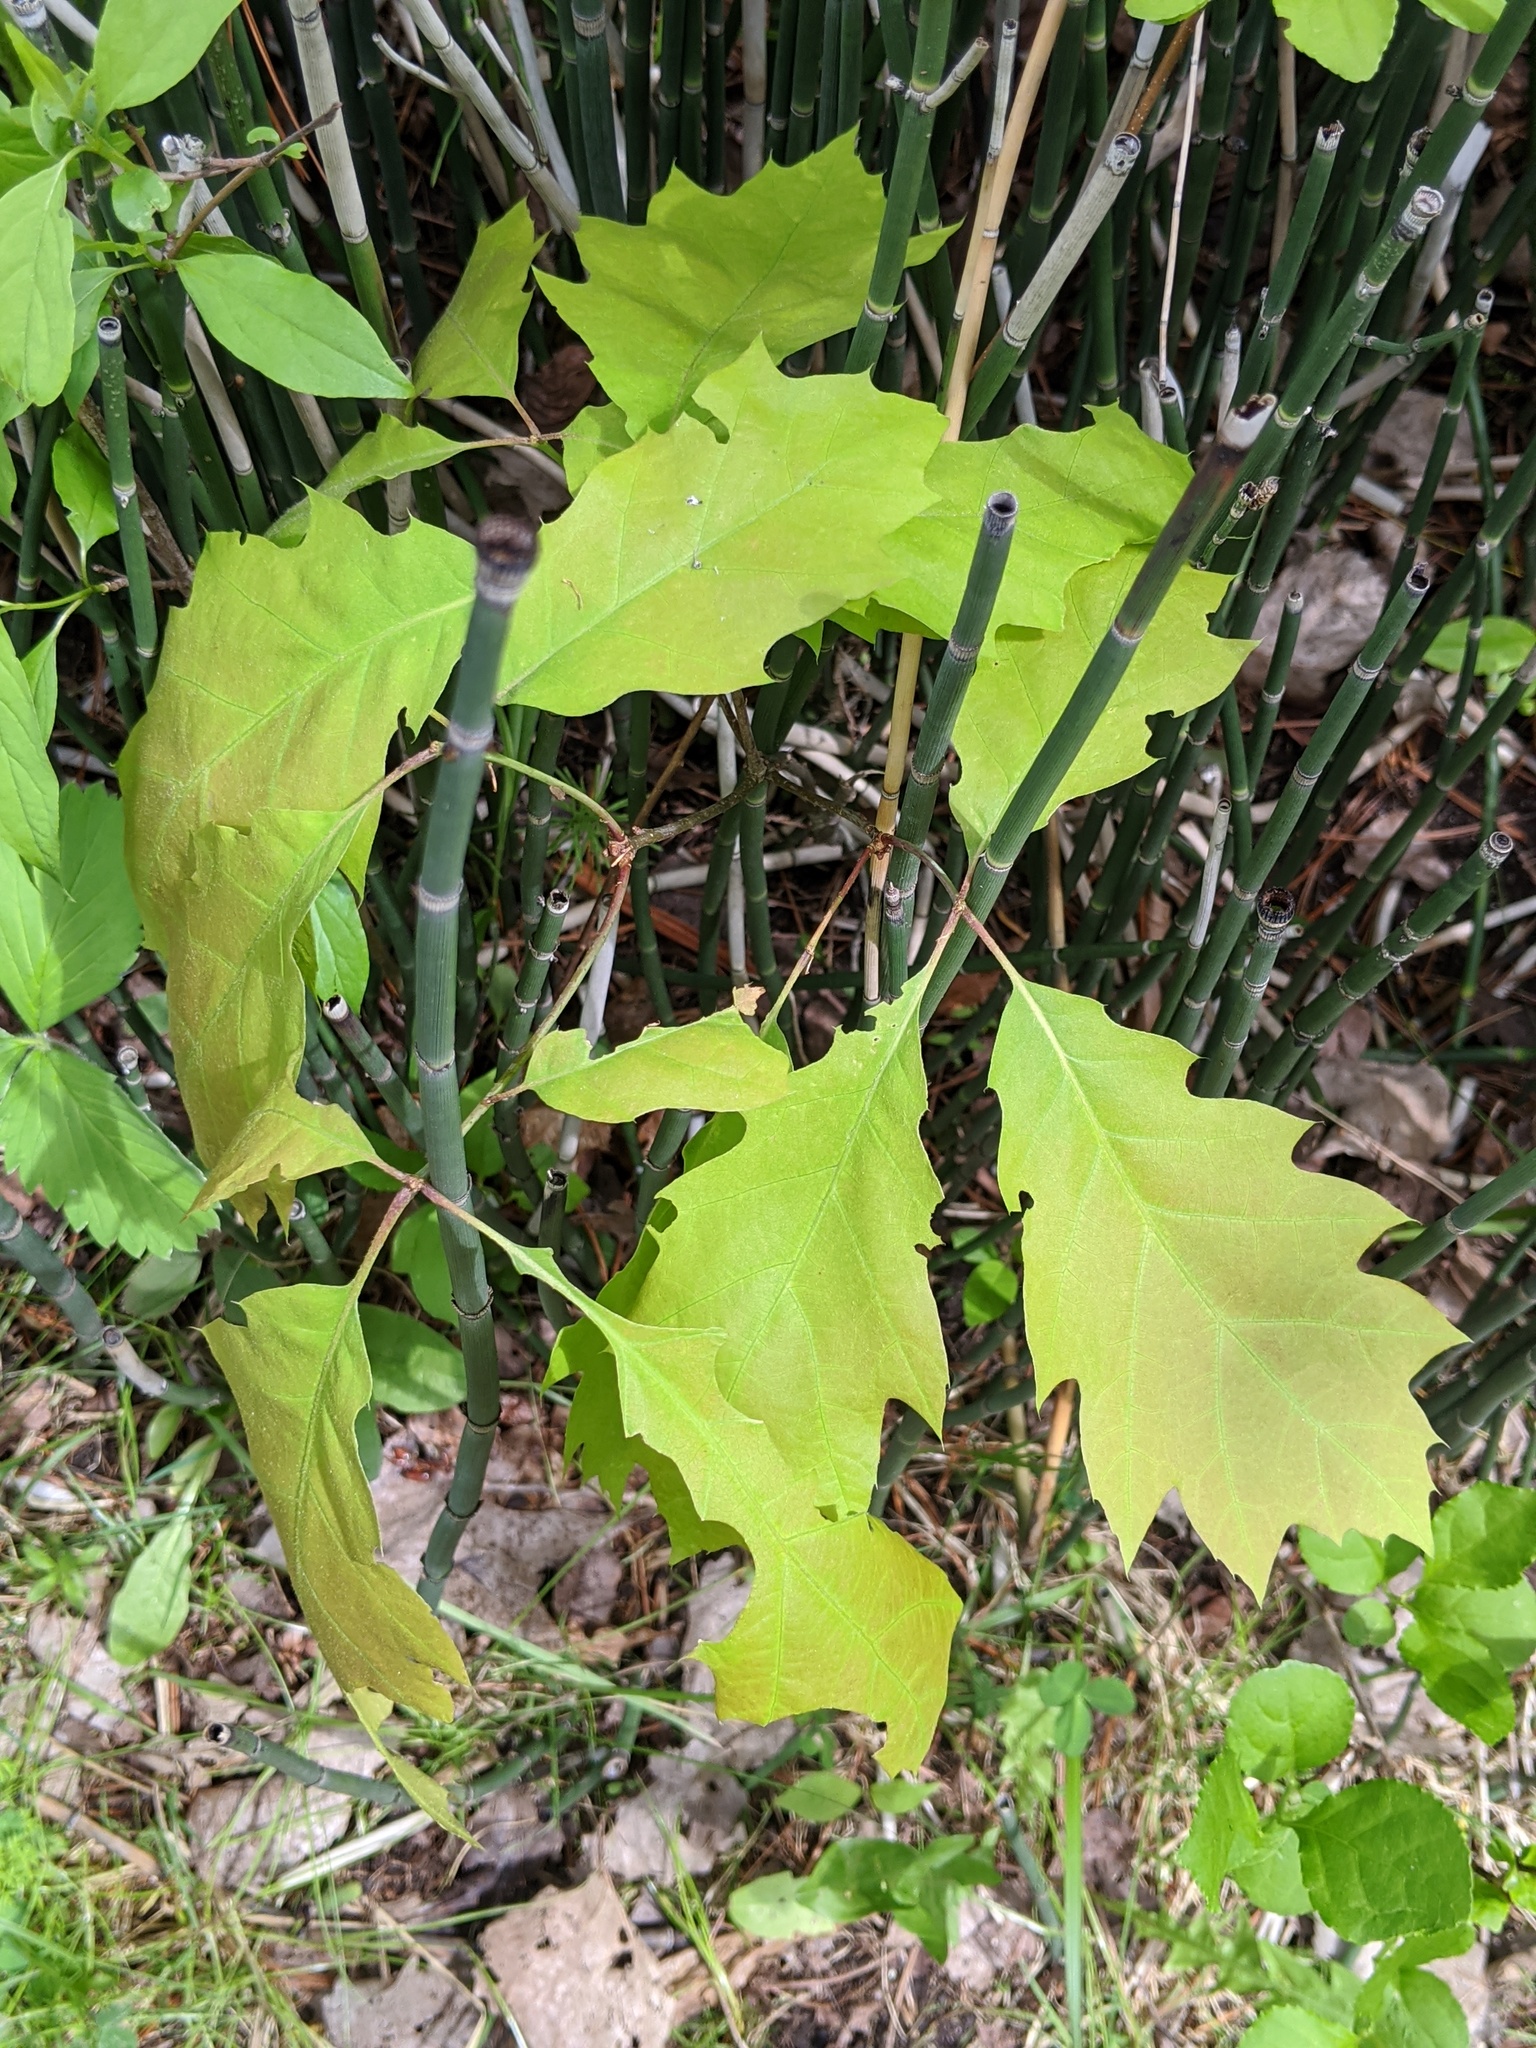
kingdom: Plantae
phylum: Tracheophyta
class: Magnoliopsida
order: Fagales
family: Fagaceae
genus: Quercus
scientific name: Quercus rubra
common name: Red oak
